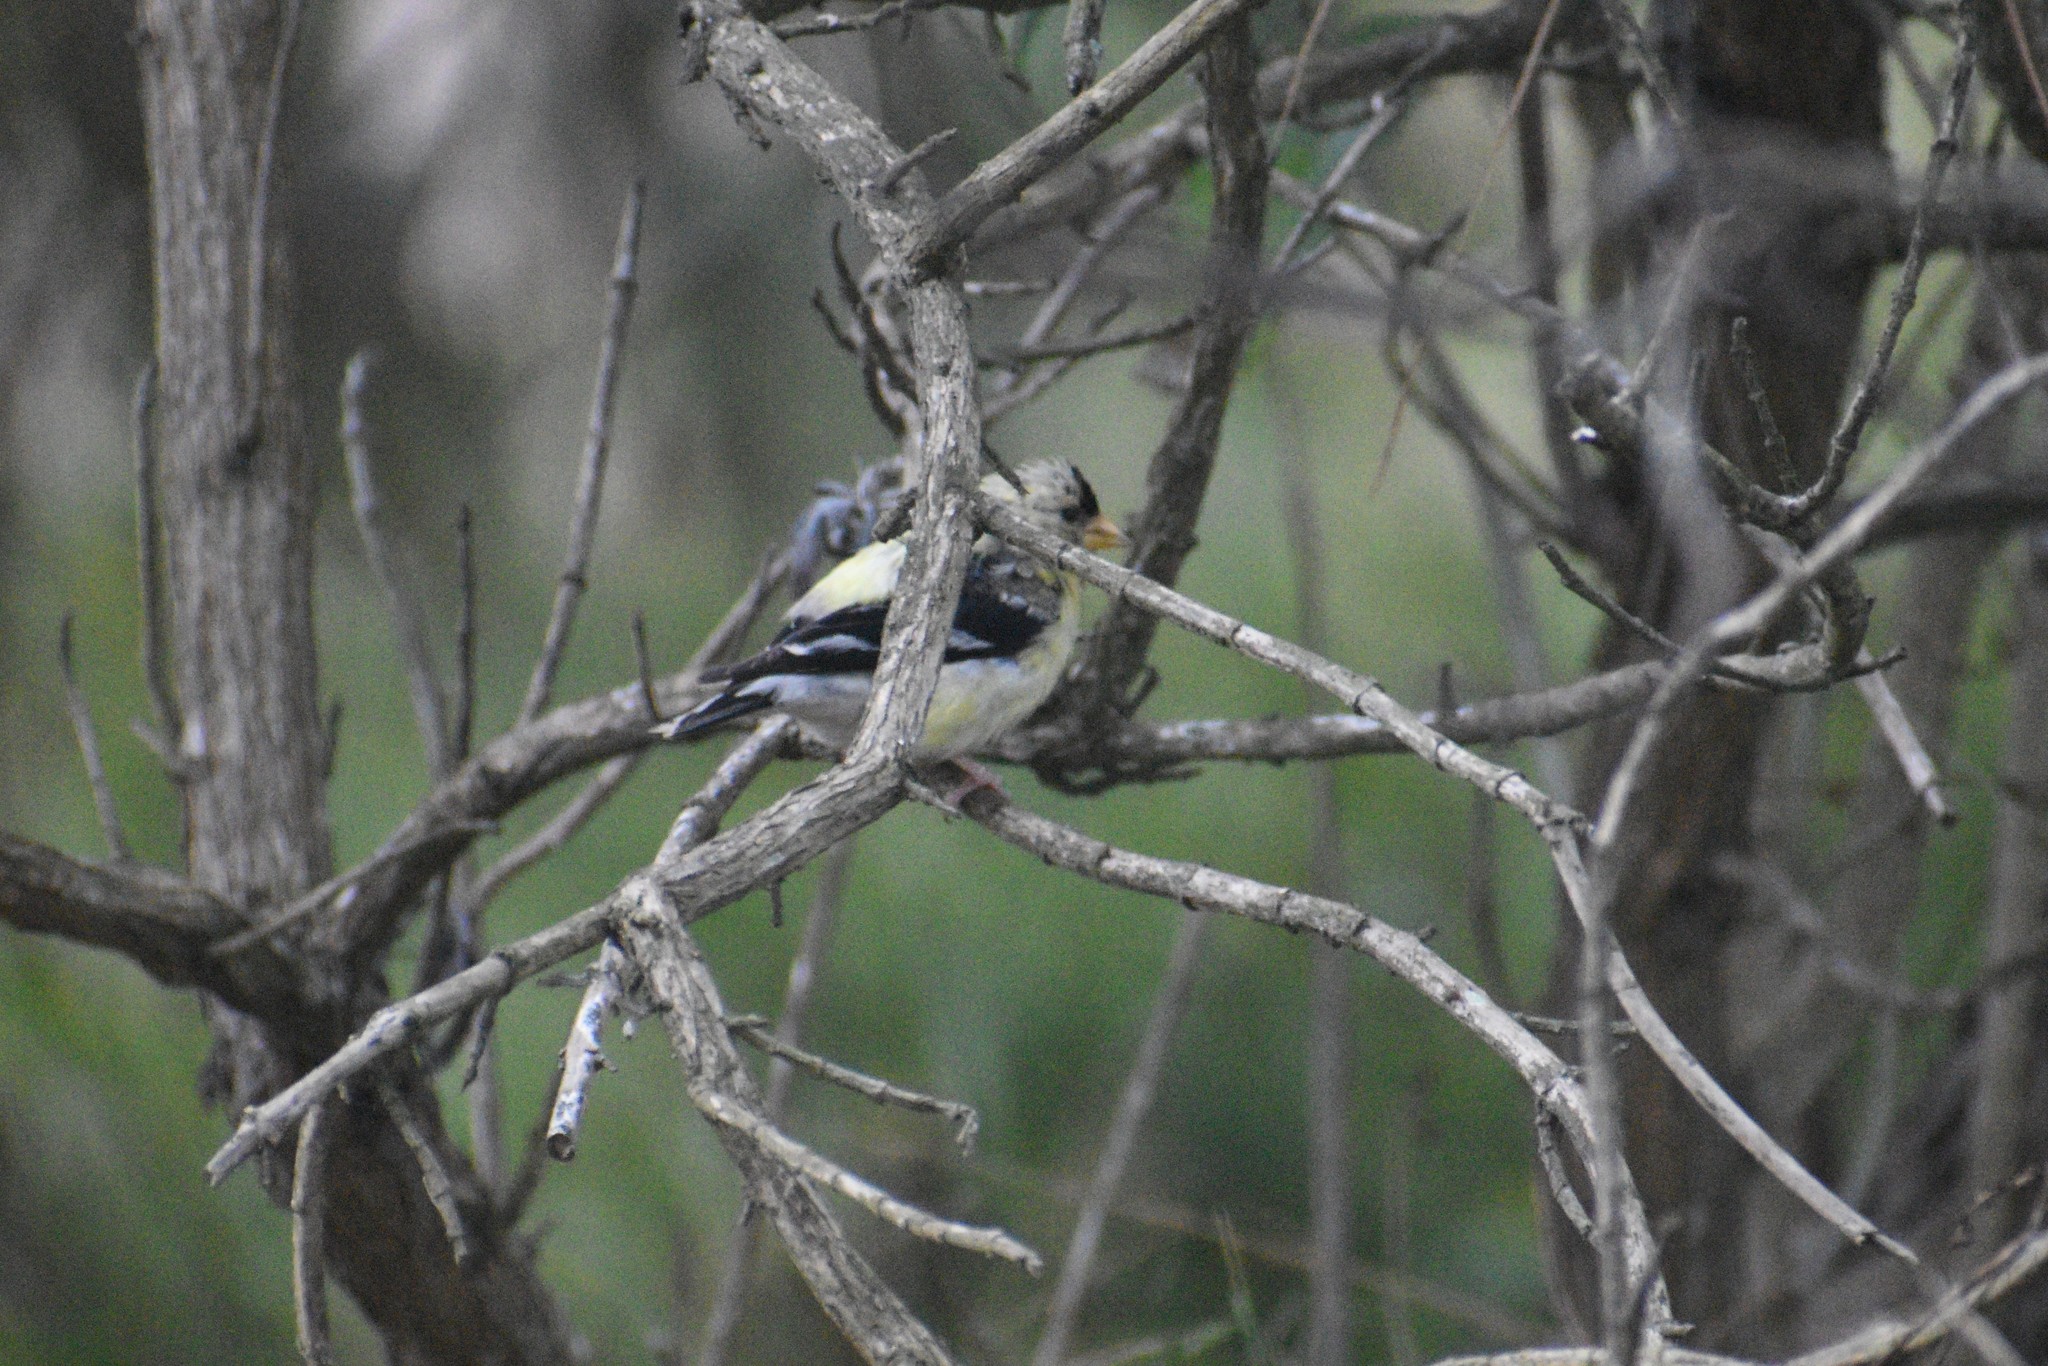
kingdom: Animalia
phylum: Chordata
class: Aves
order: Passeriformes
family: Fringillidae
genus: Spinus
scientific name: Spinus tristis
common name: American goldfinch
